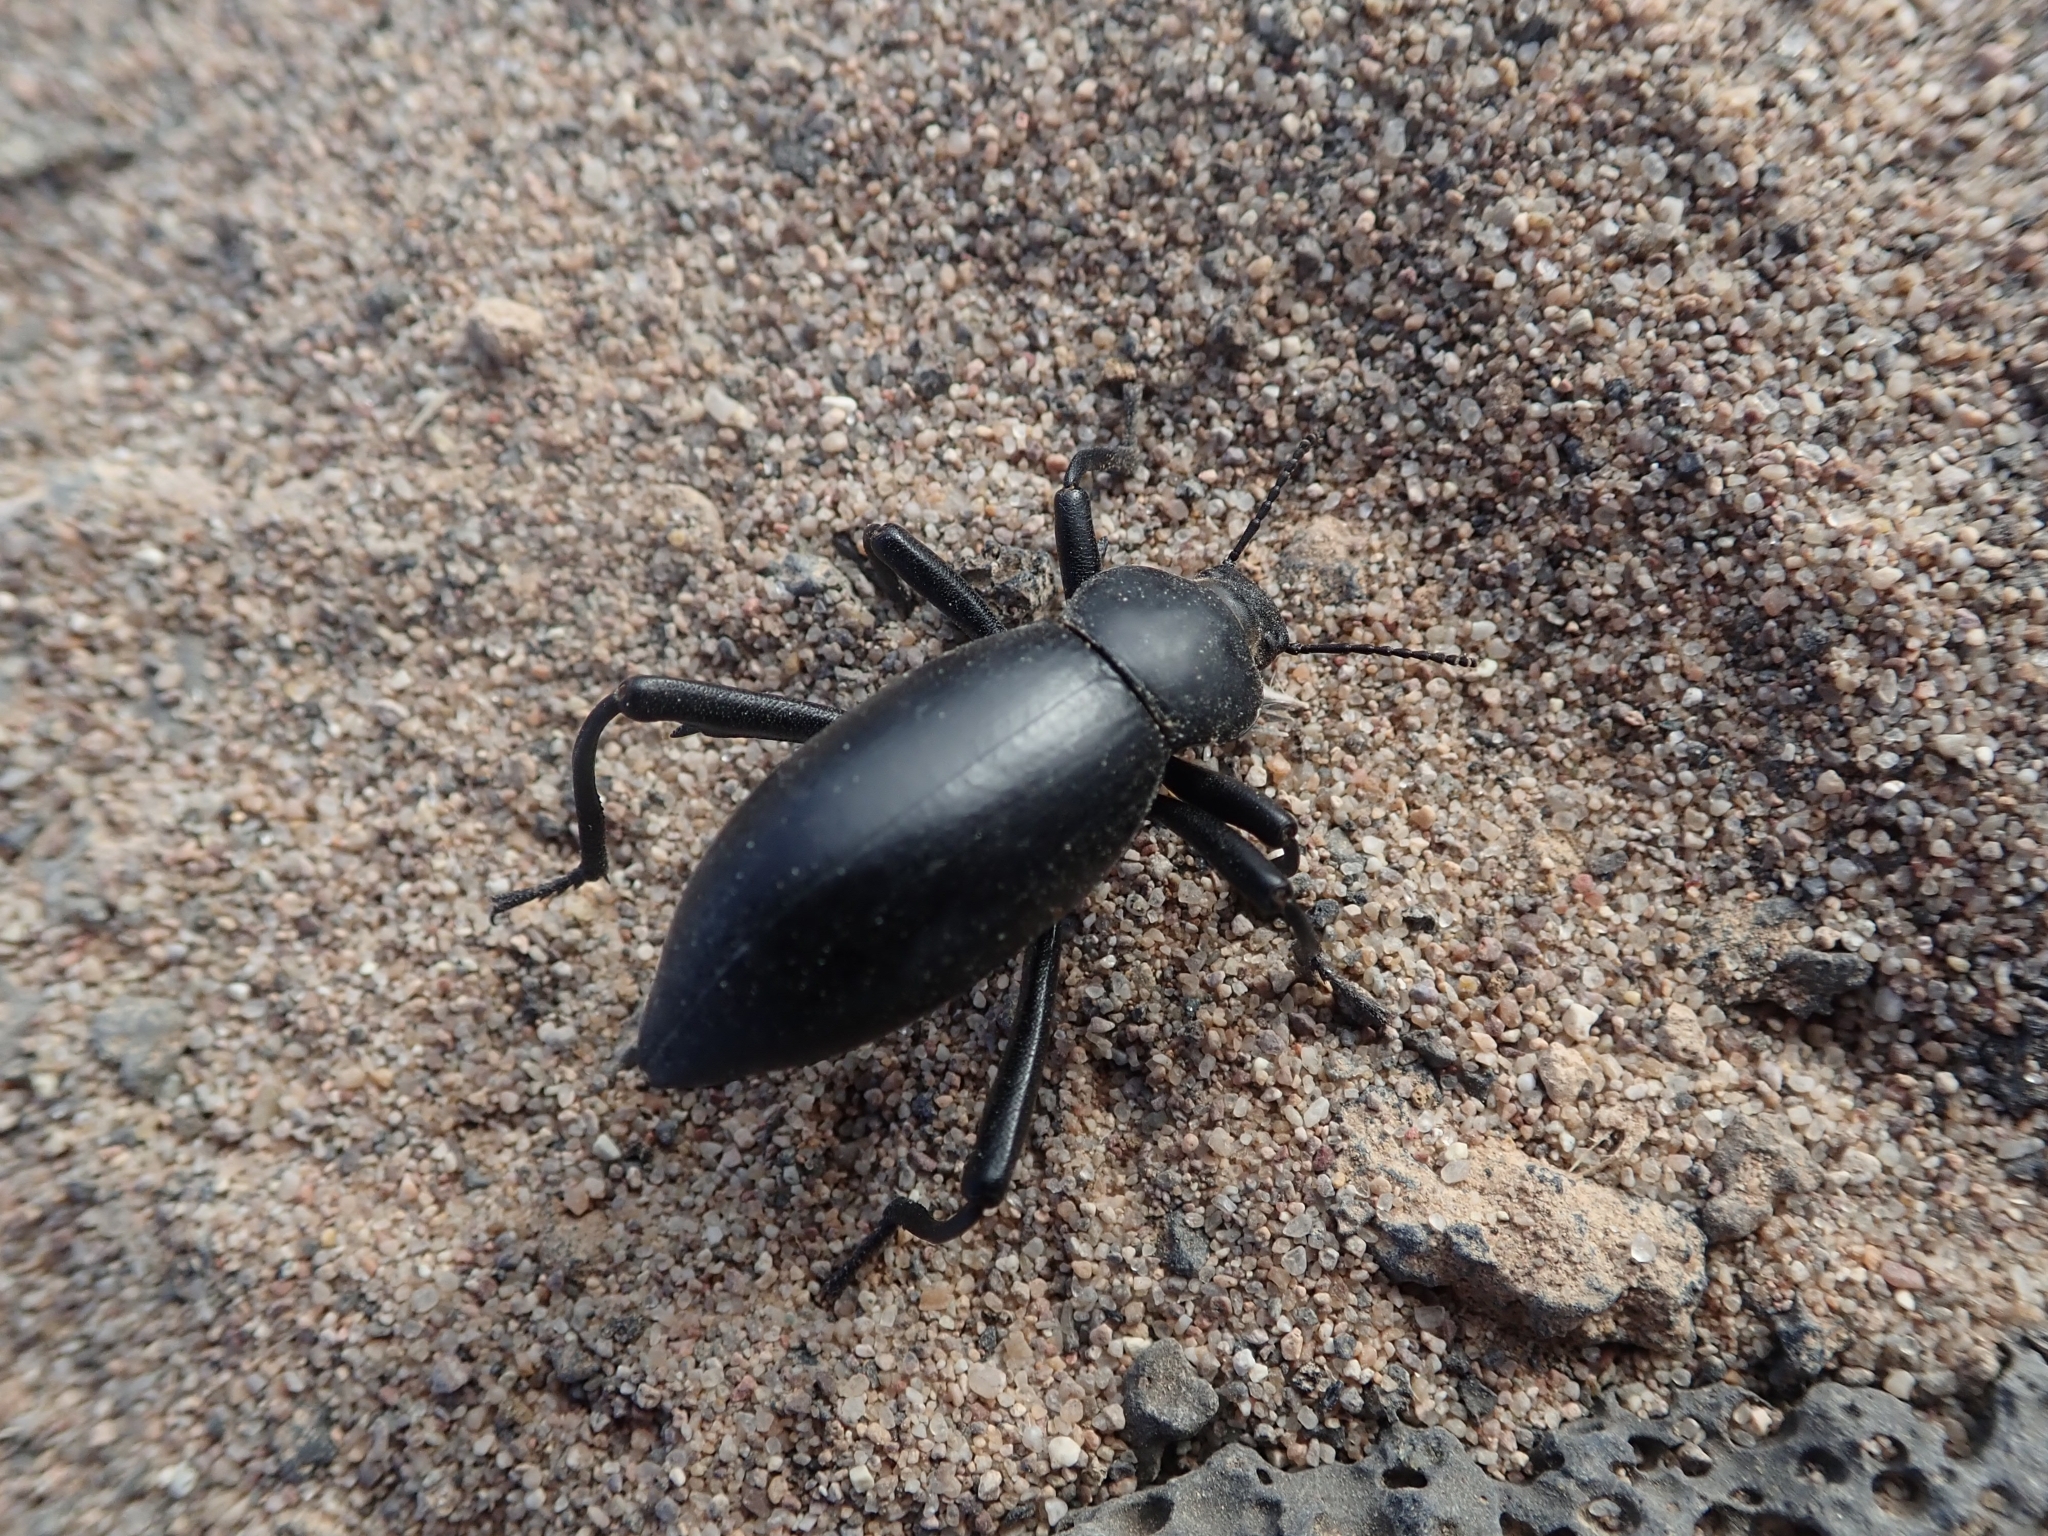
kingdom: Animalia
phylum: Arthropoda
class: Insecta
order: Coleoptera
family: Tenebrionidae
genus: Eleodes
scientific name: Eleodes armata
